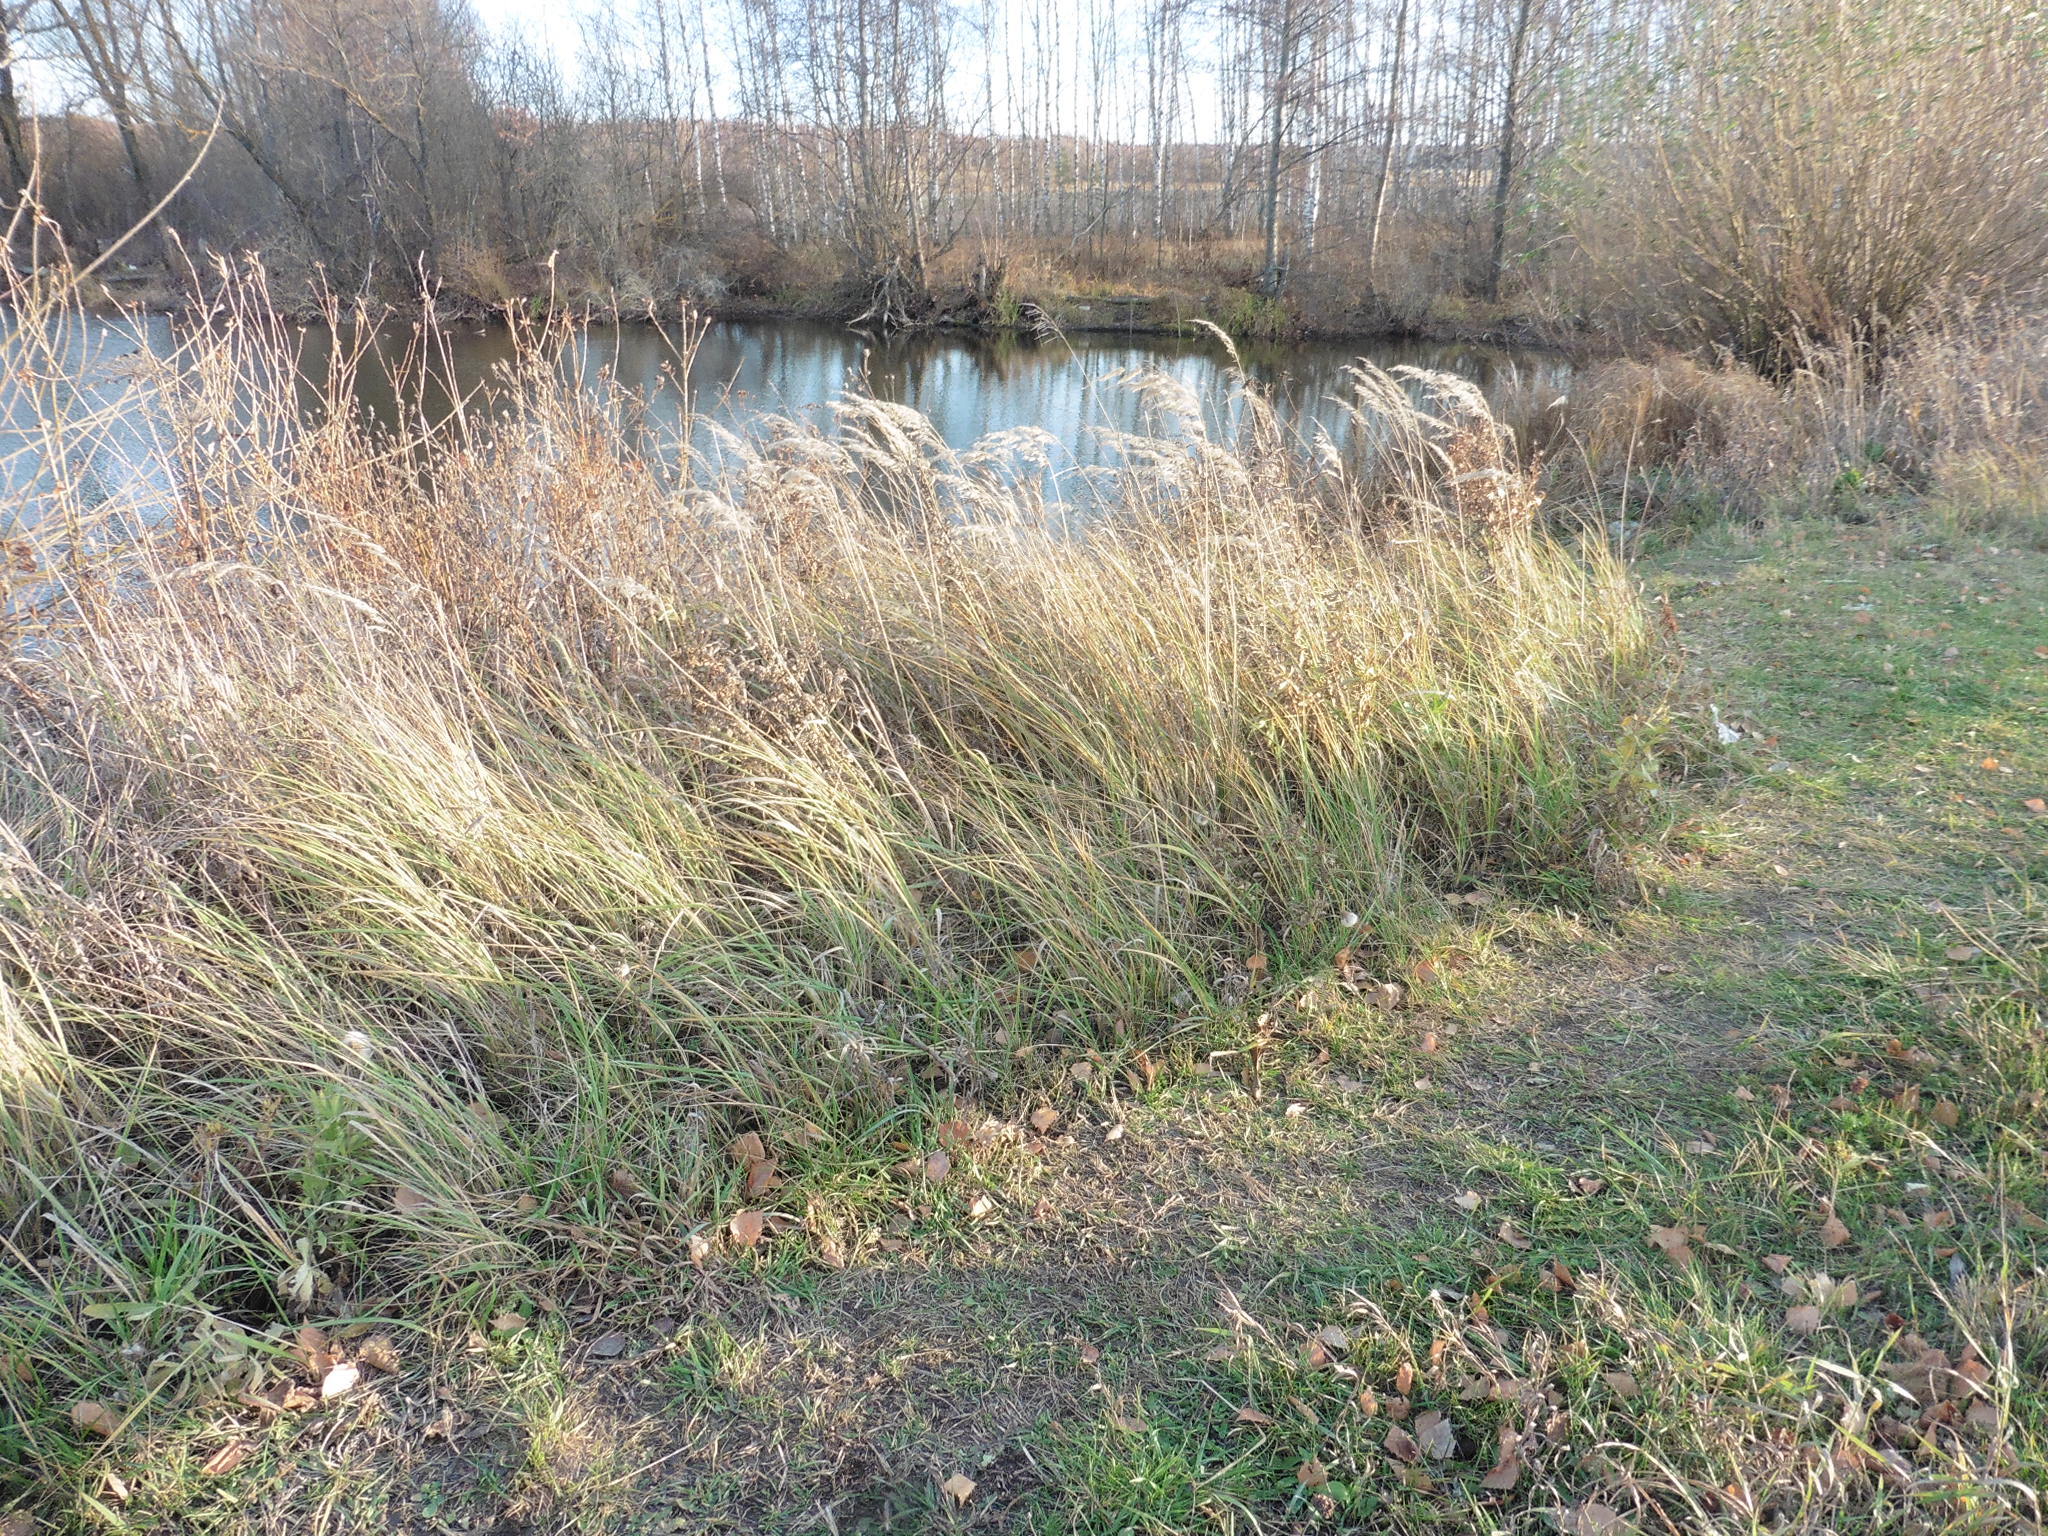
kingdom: Plantae
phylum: Tracheophyta
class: Liliopsida
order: Poales
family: Poaceae
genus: Calamagrostis
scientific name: Calamagrostis epigejos
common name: Wood small-reed
